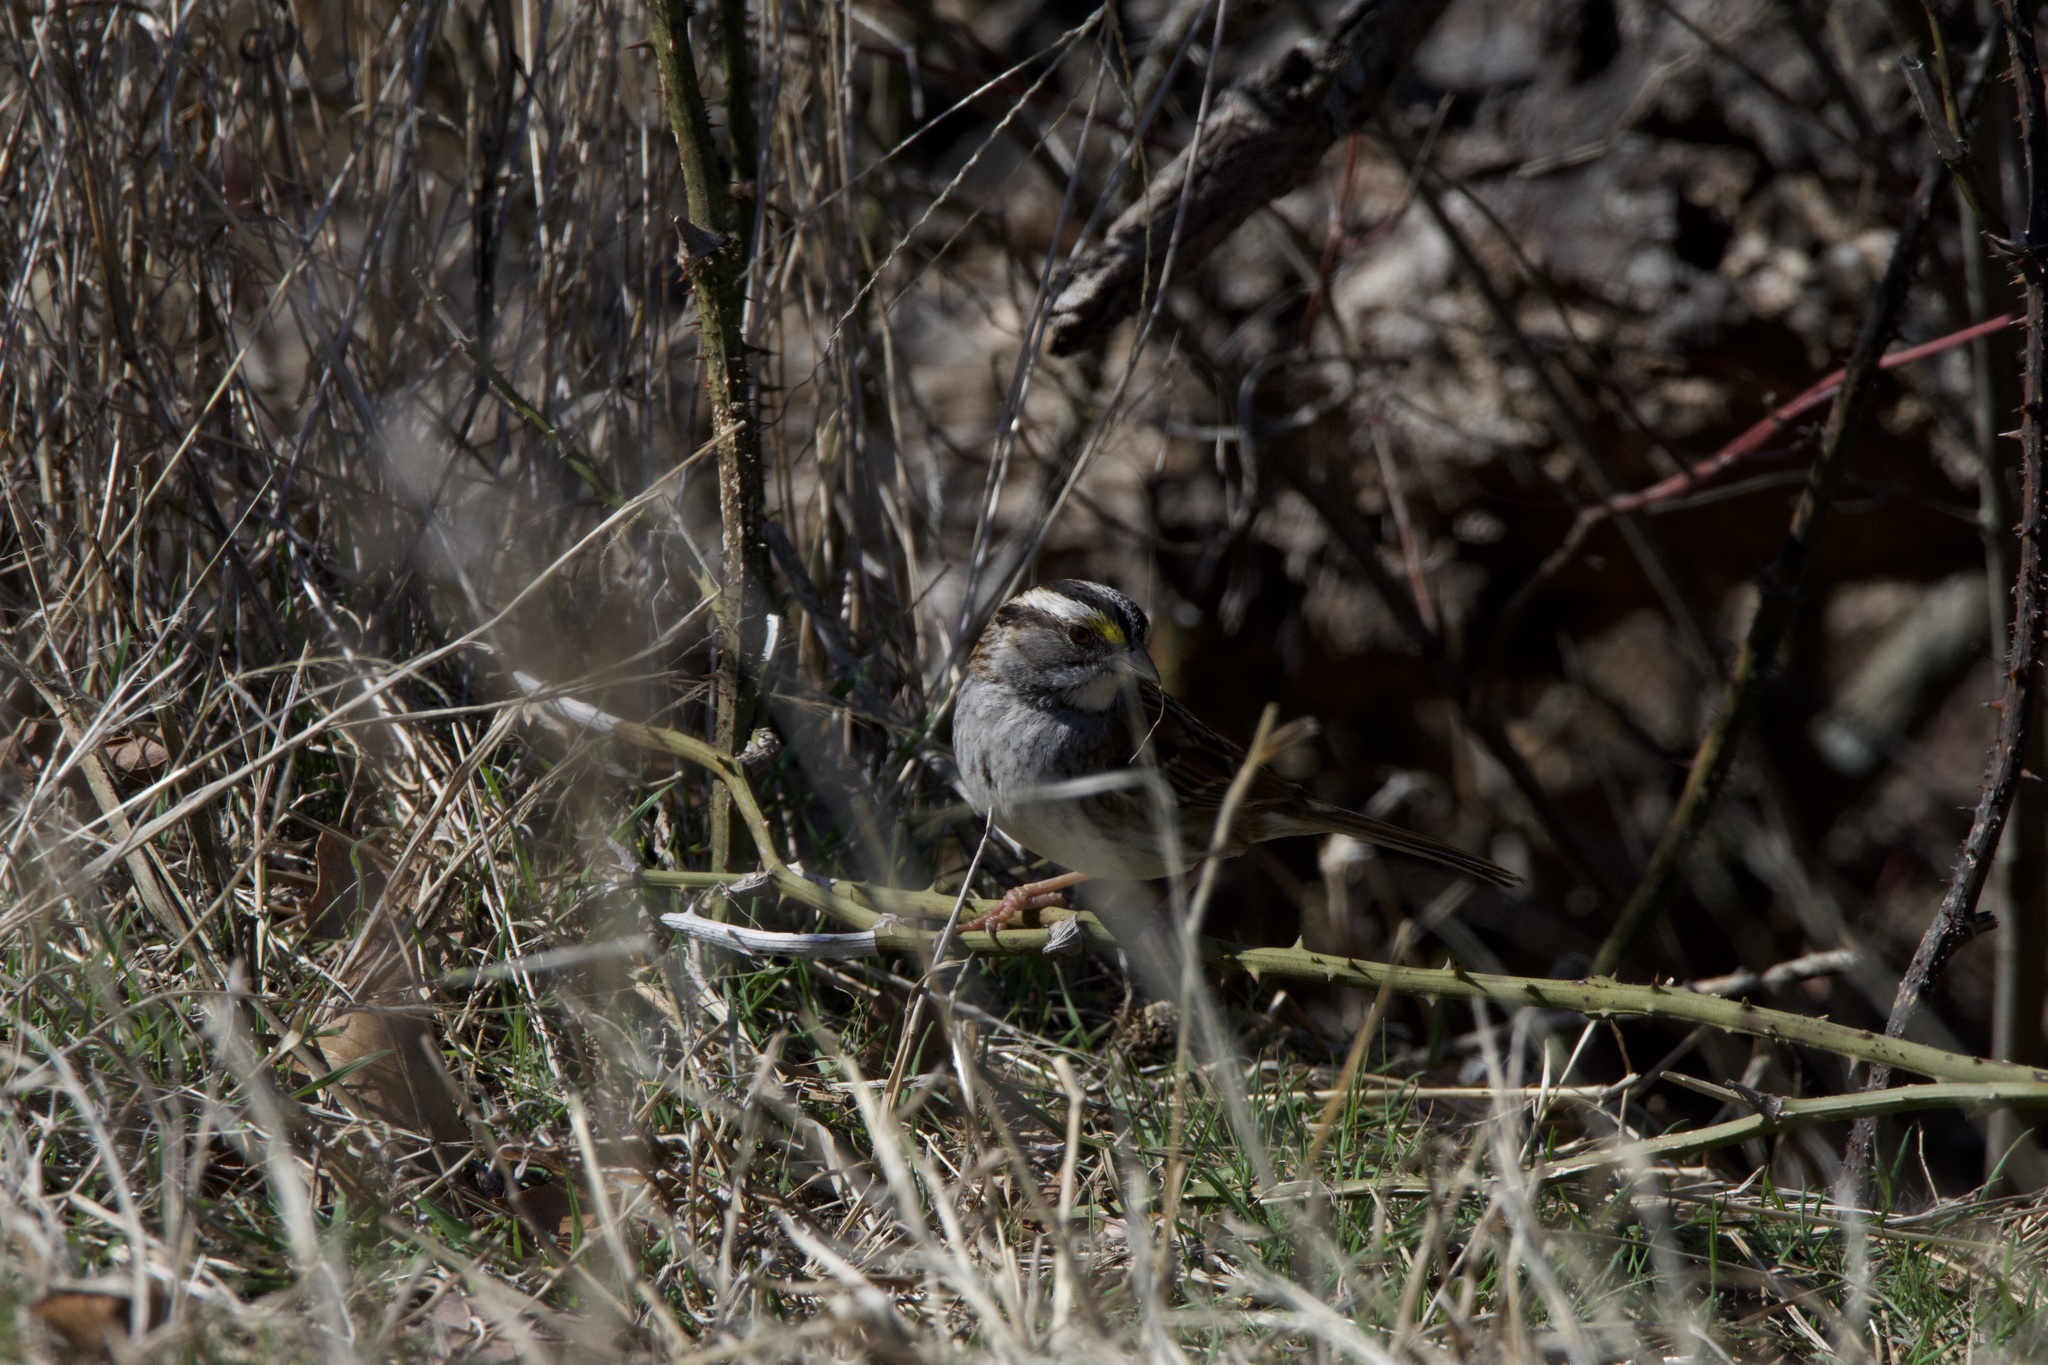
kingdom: Animalia
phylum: Chordata
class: Aves
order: Passeriformes
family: Passerellidae
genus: Zonotrichia
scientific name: Zonotrichia albicollis
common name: White-throated sparrow
